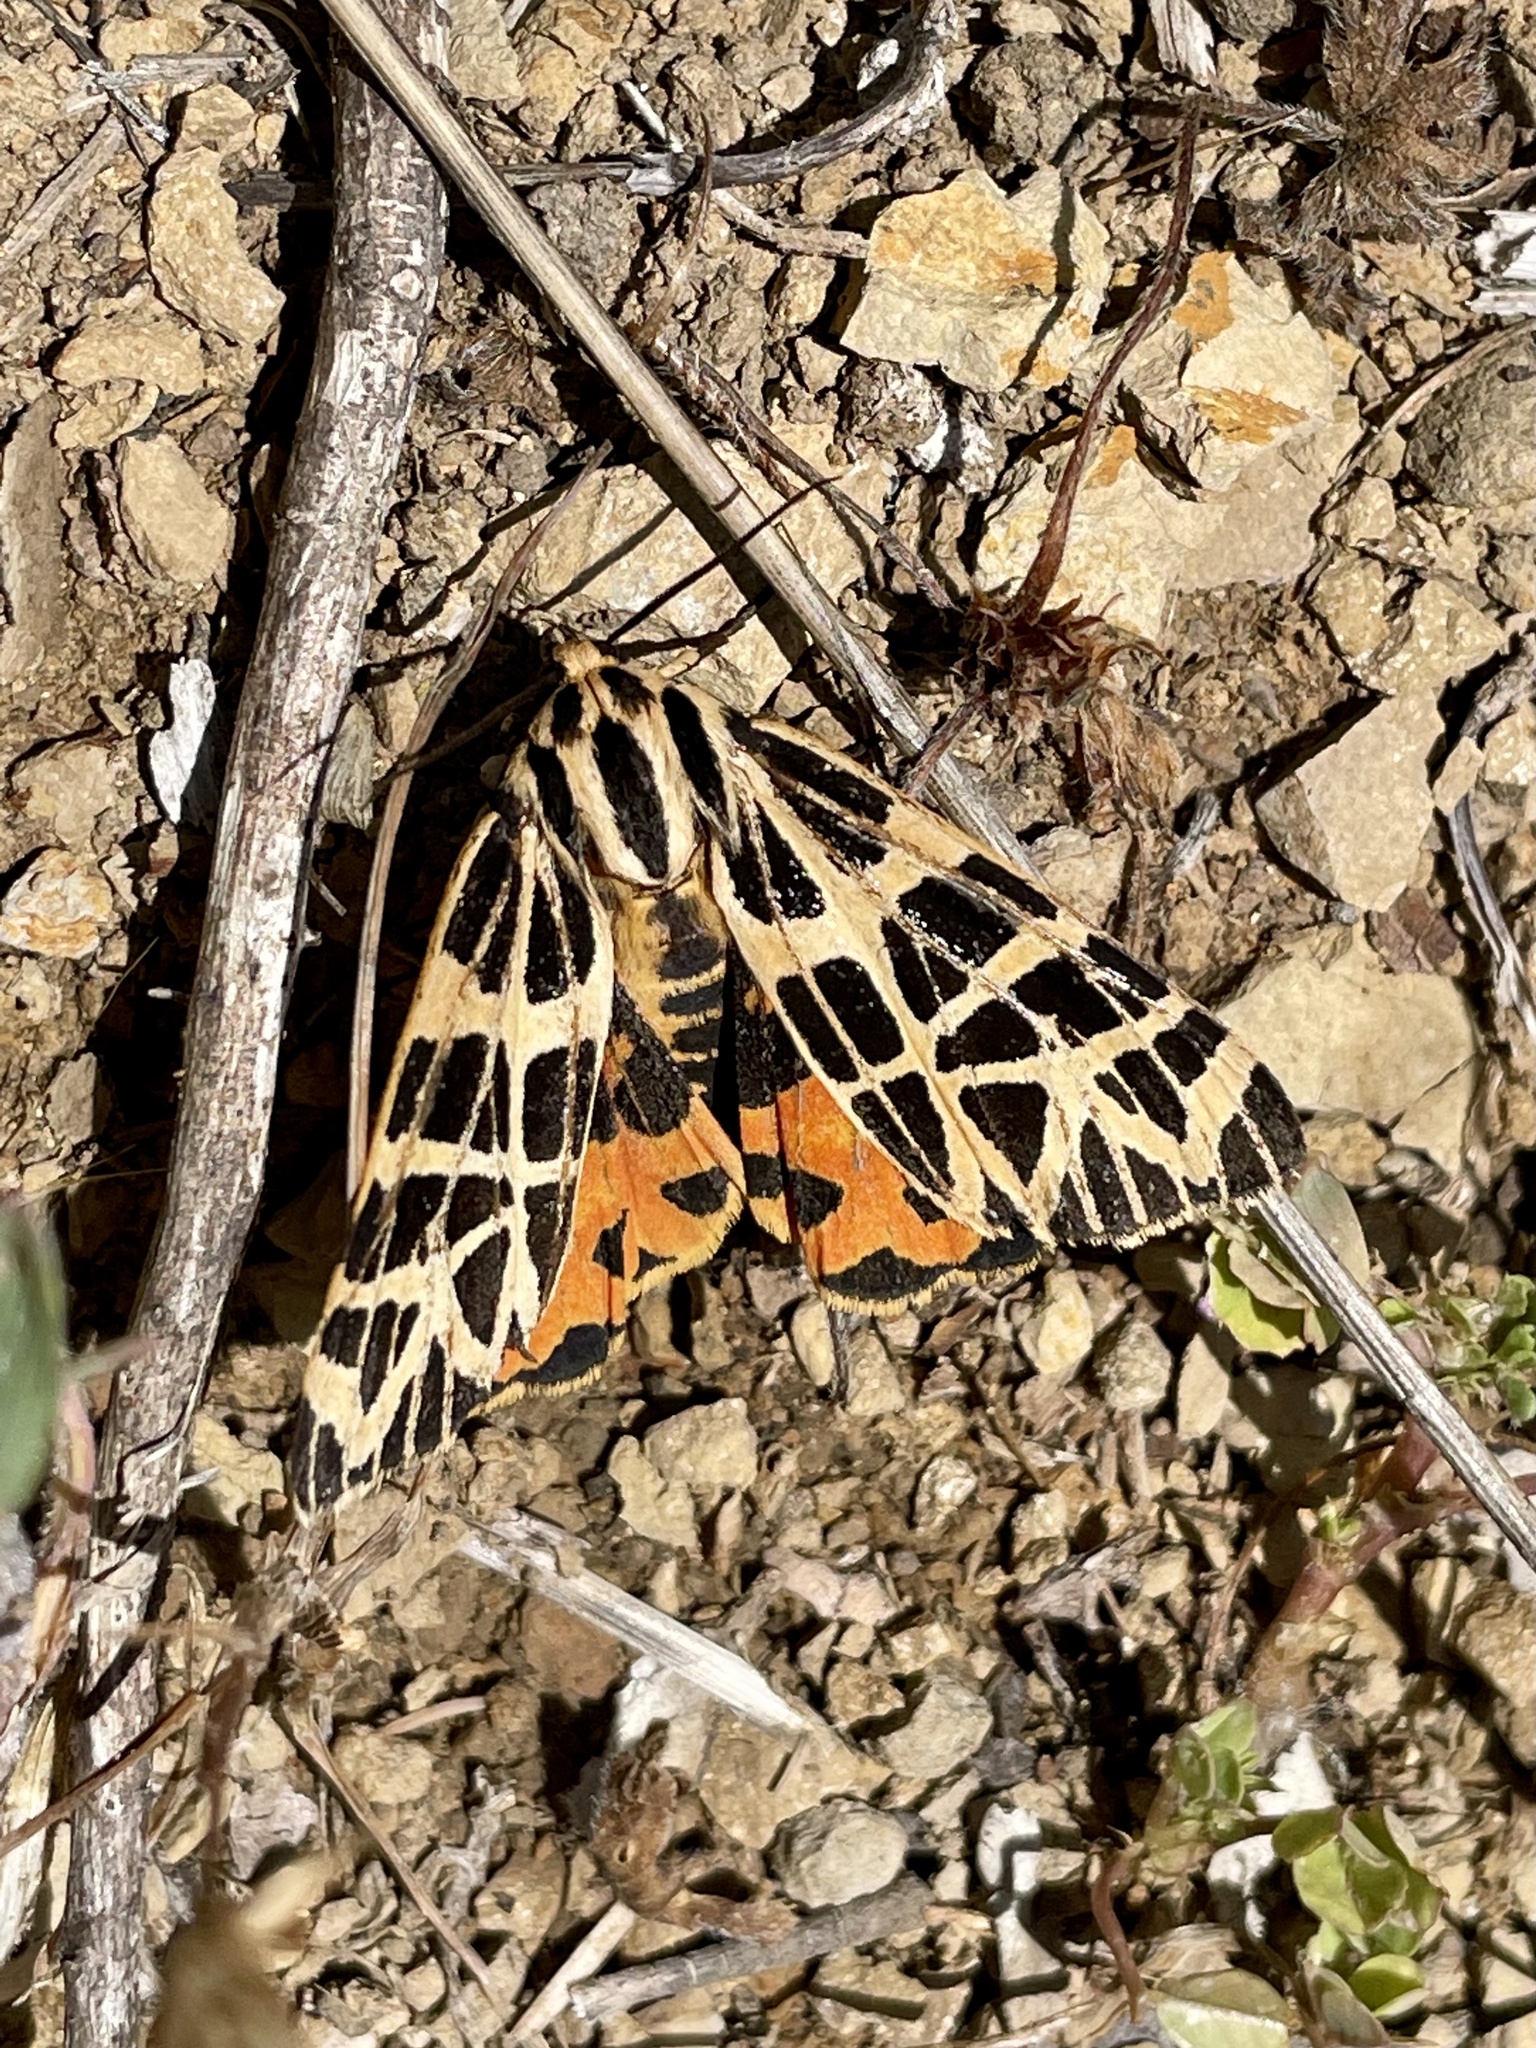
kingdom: Animalia
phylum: Arthropoda
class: Insecta
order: Lepidoptera
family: Erebidae
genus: Apantesis
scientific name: Apantesis
